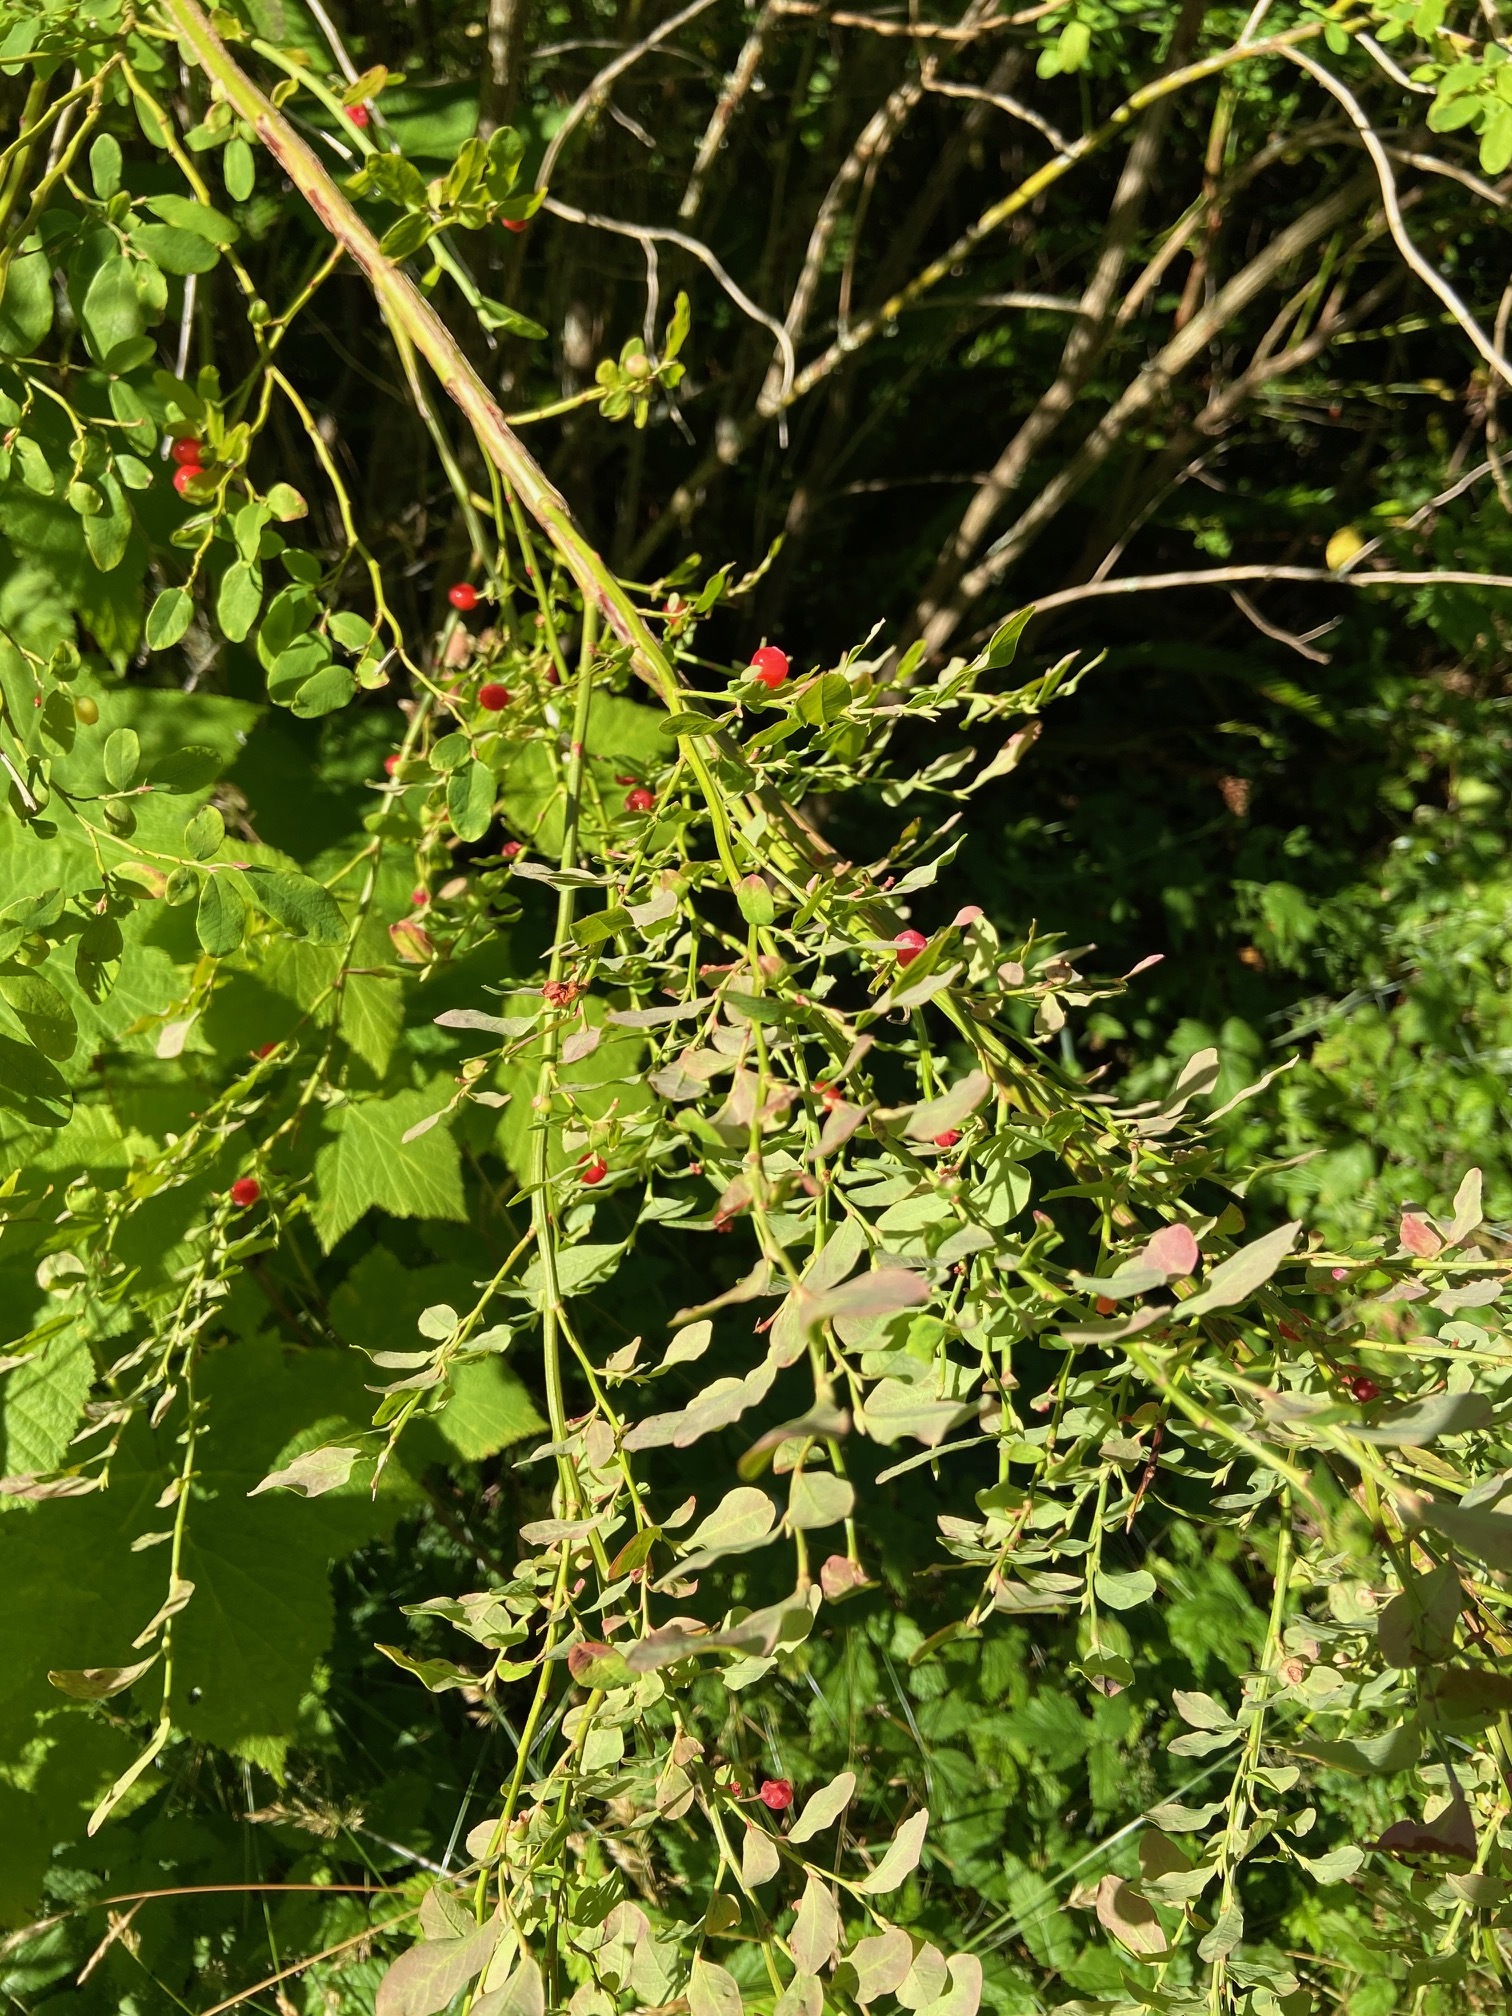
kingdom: Plantae
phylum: Tracheophyta
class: Magnoliopsida
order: Ericales
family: Ericaceae
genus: Vaccinium
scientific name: Vaccinium parvifolium
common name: Red-huckleberry
